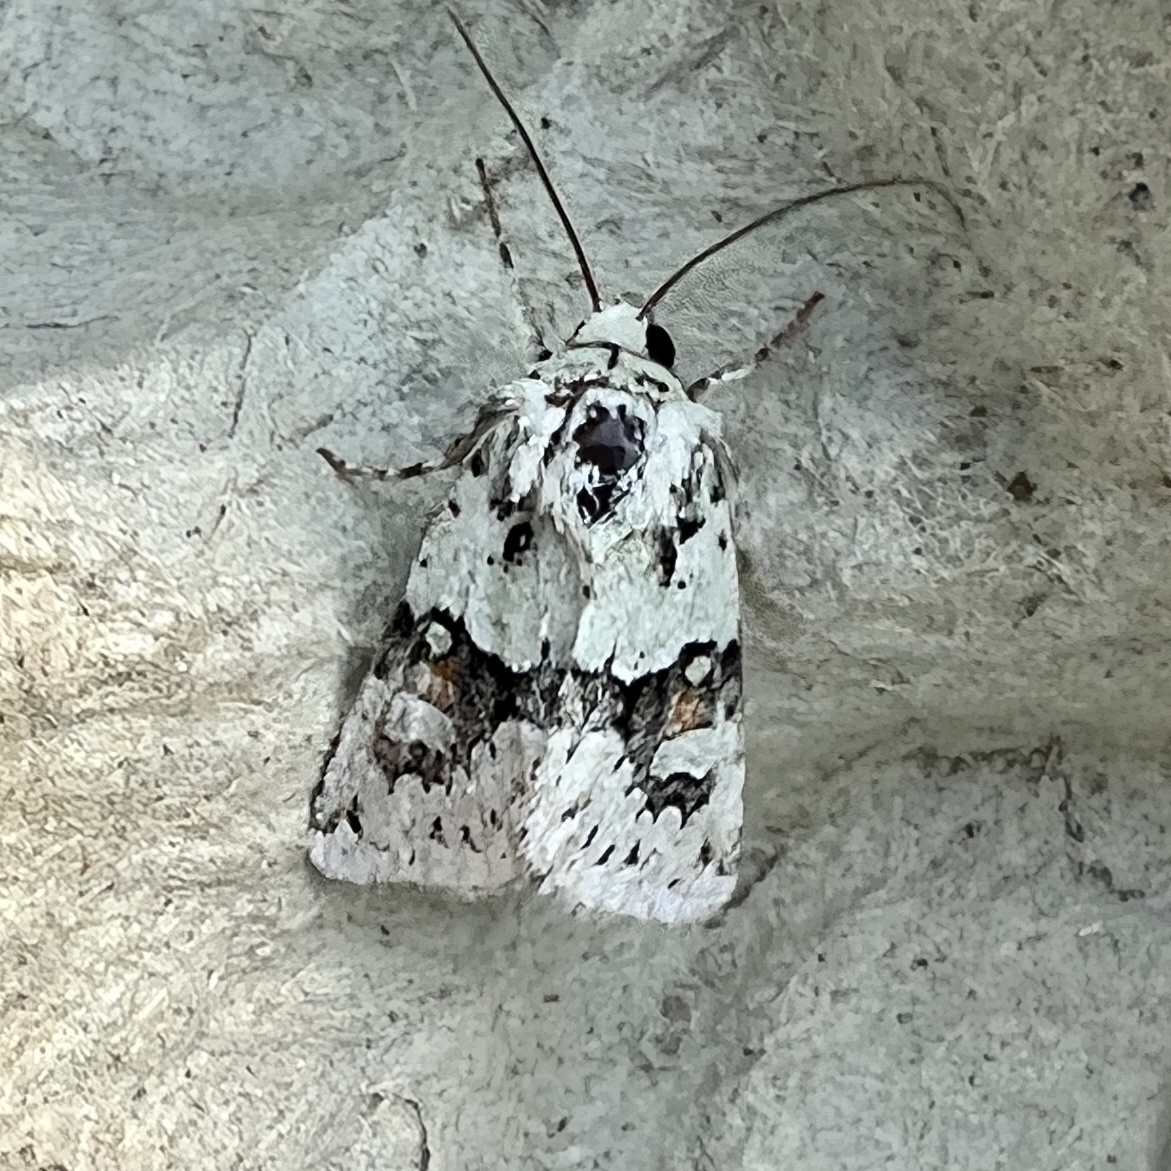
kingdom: Animalia
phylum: Arthropoda
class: Insecta
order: Lepidoptera
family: Noctuidae
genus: Lacinipolia
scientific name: Lacinipolia implicata
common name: Implicit arches
